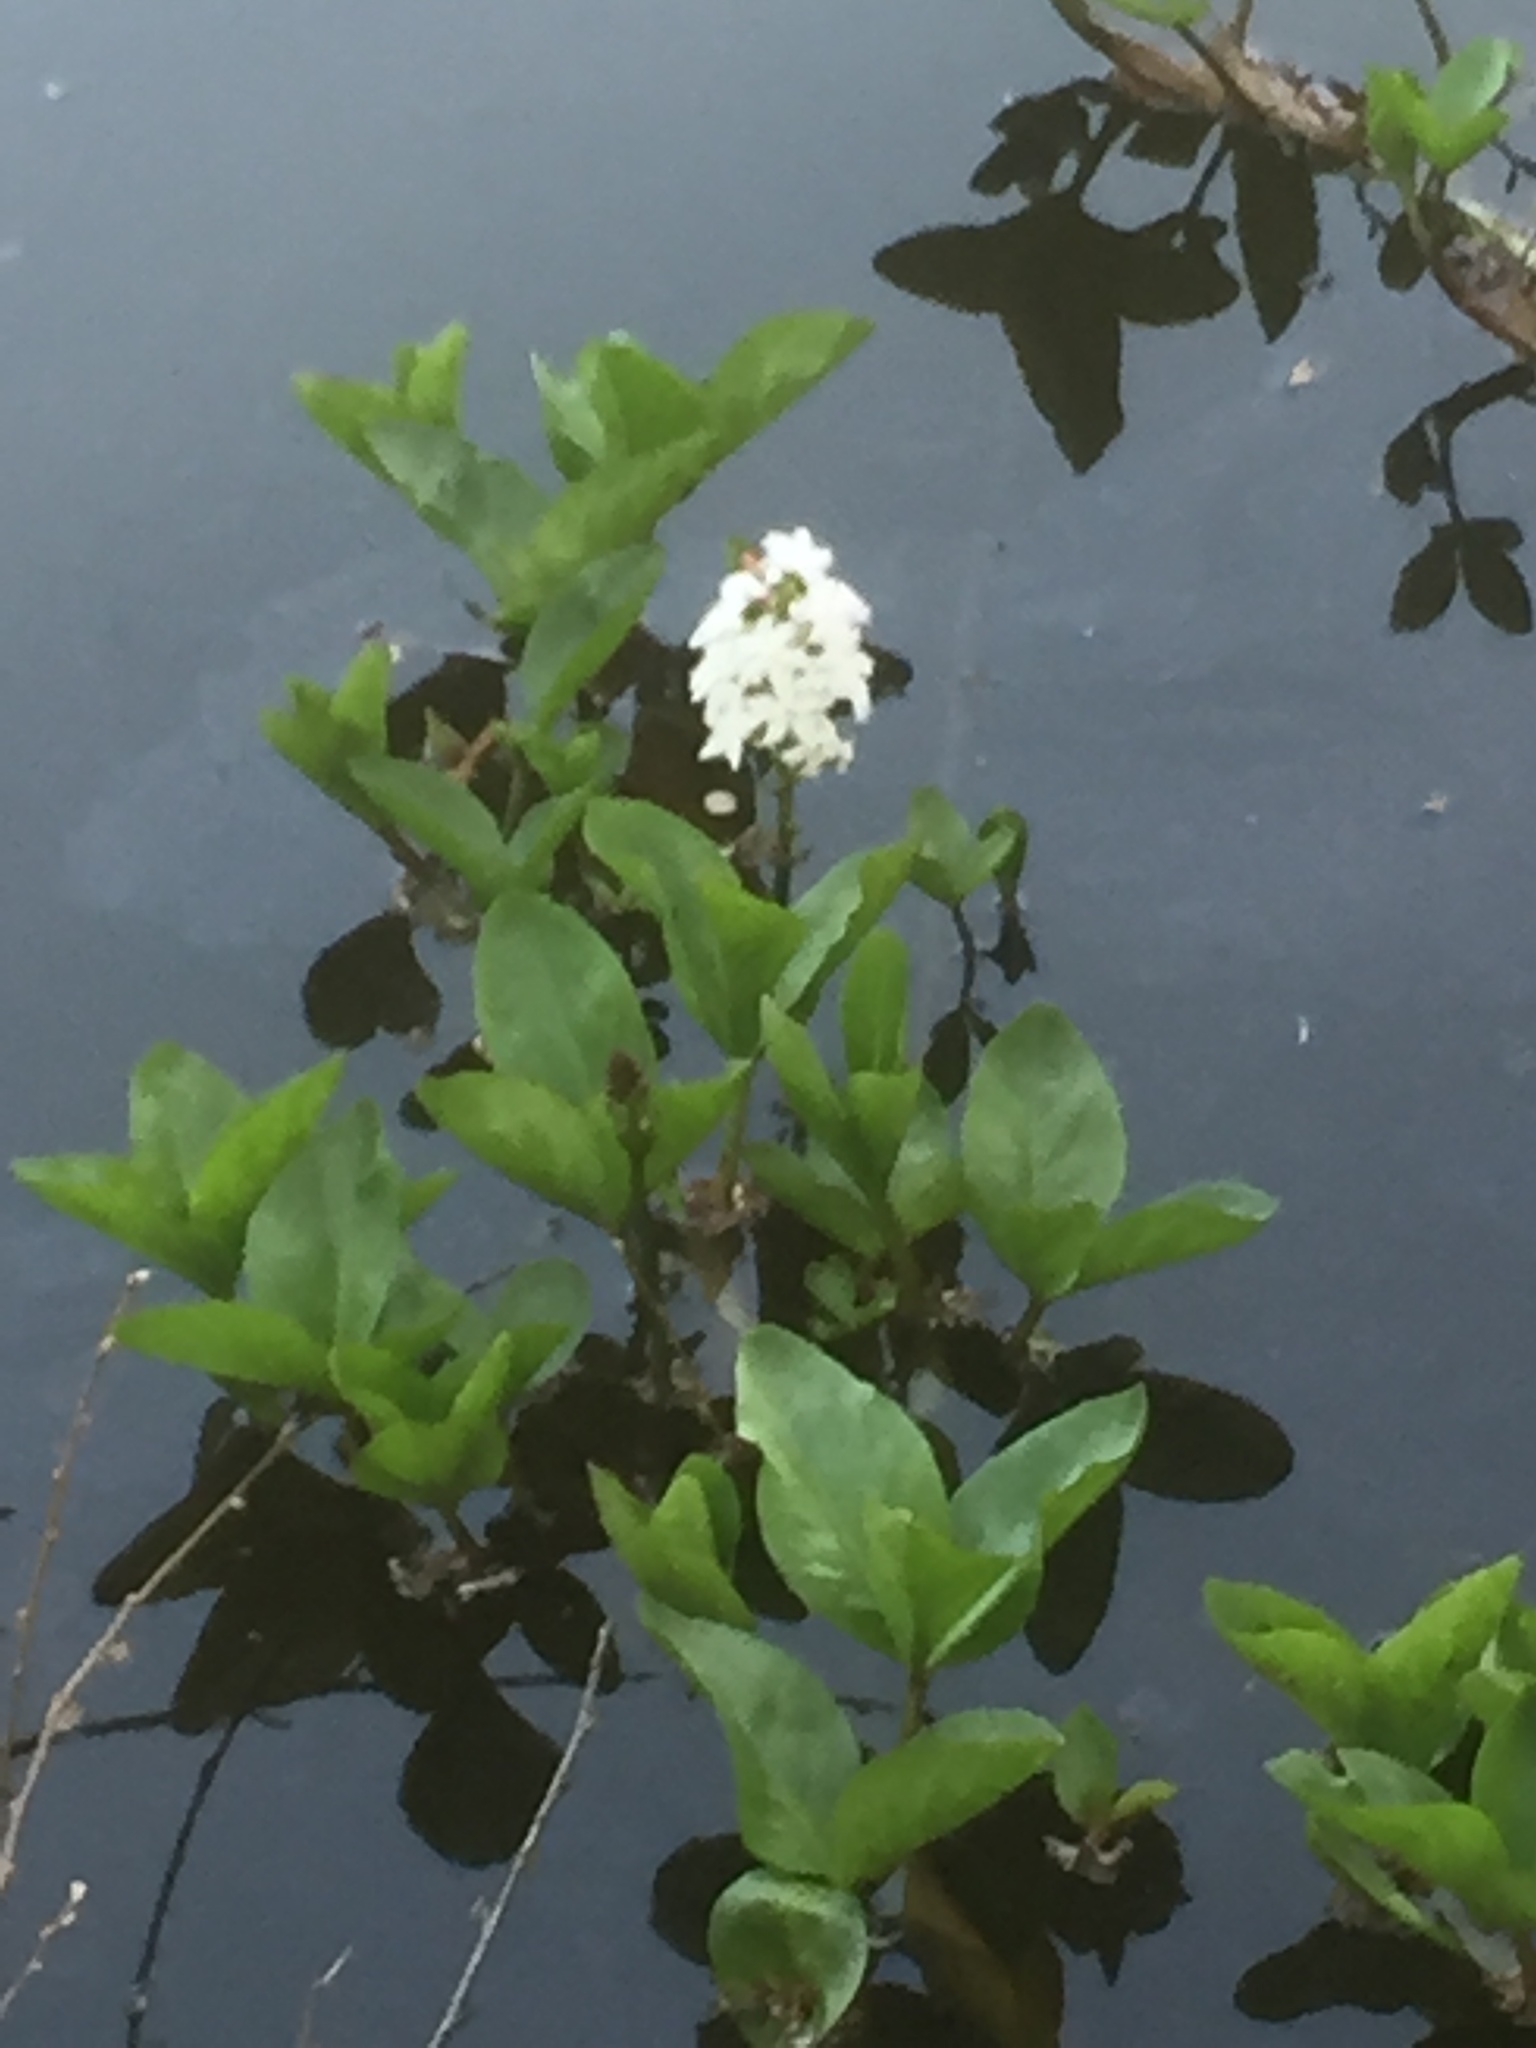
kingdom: Plantae
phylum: Tracheophyta
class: Magnoliopsida
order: Asterales
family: Menyanthaceae
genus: Menyanthes
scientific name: Menyanthes trifoliata
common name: Bogbean
